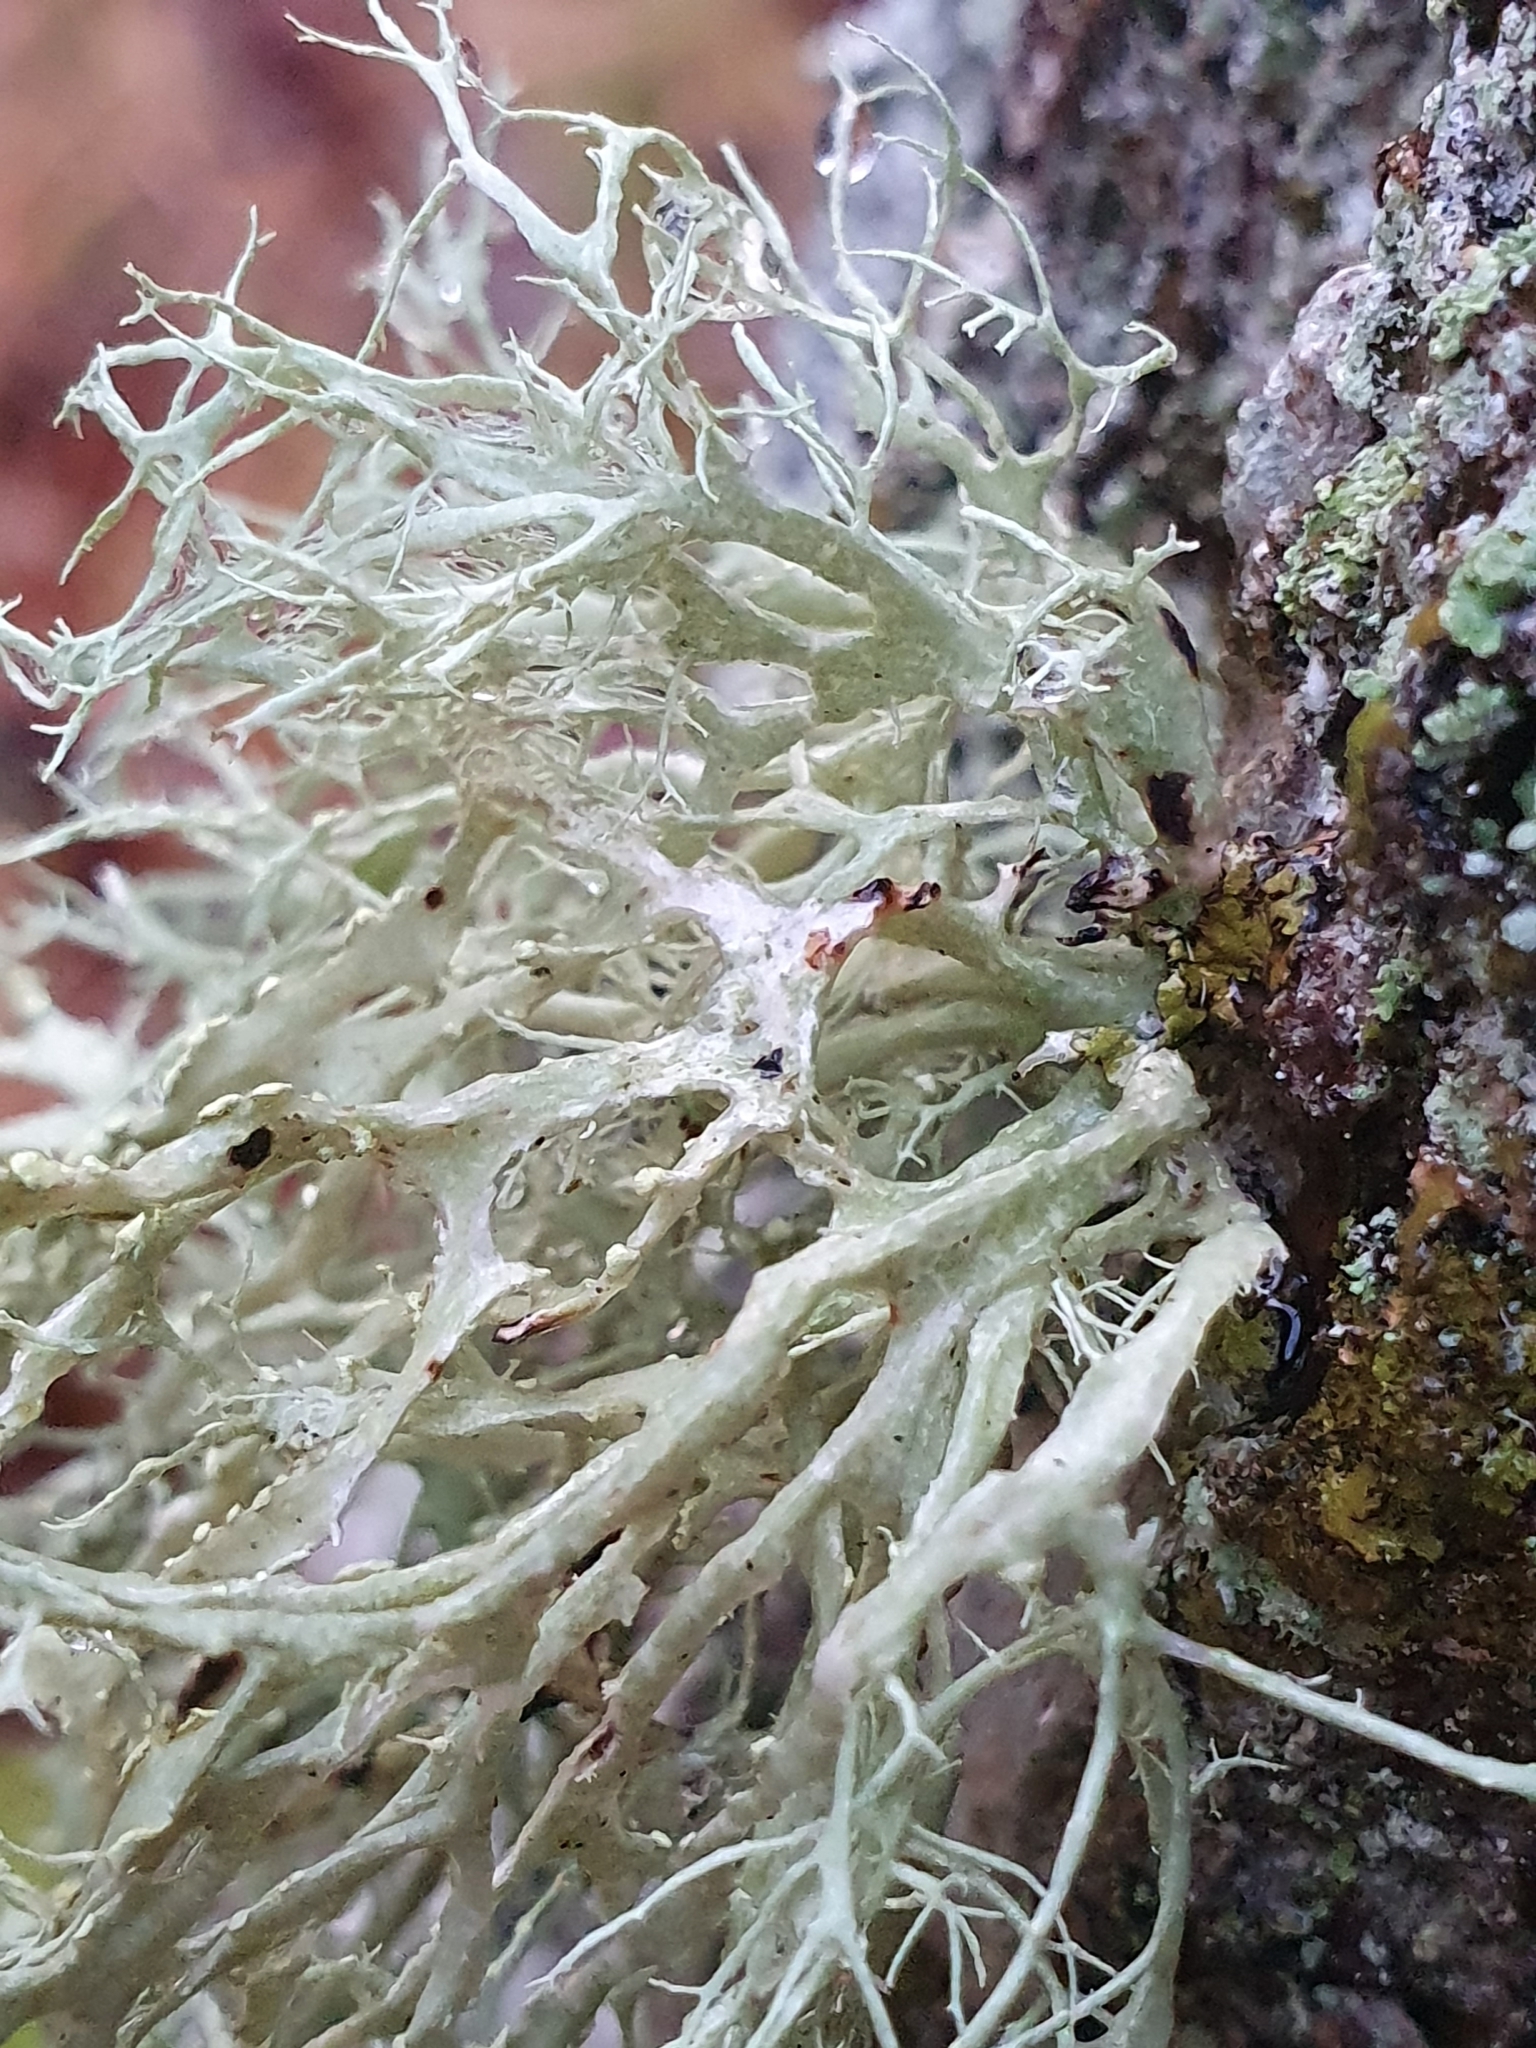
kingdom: Fungi
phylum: Ascomycota
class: Lecanoromycetes
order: Lecanorales
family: Ramalinaceae
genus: Ramalina
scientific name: Ramalina farinacea
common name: Farinose cartilage lichen
